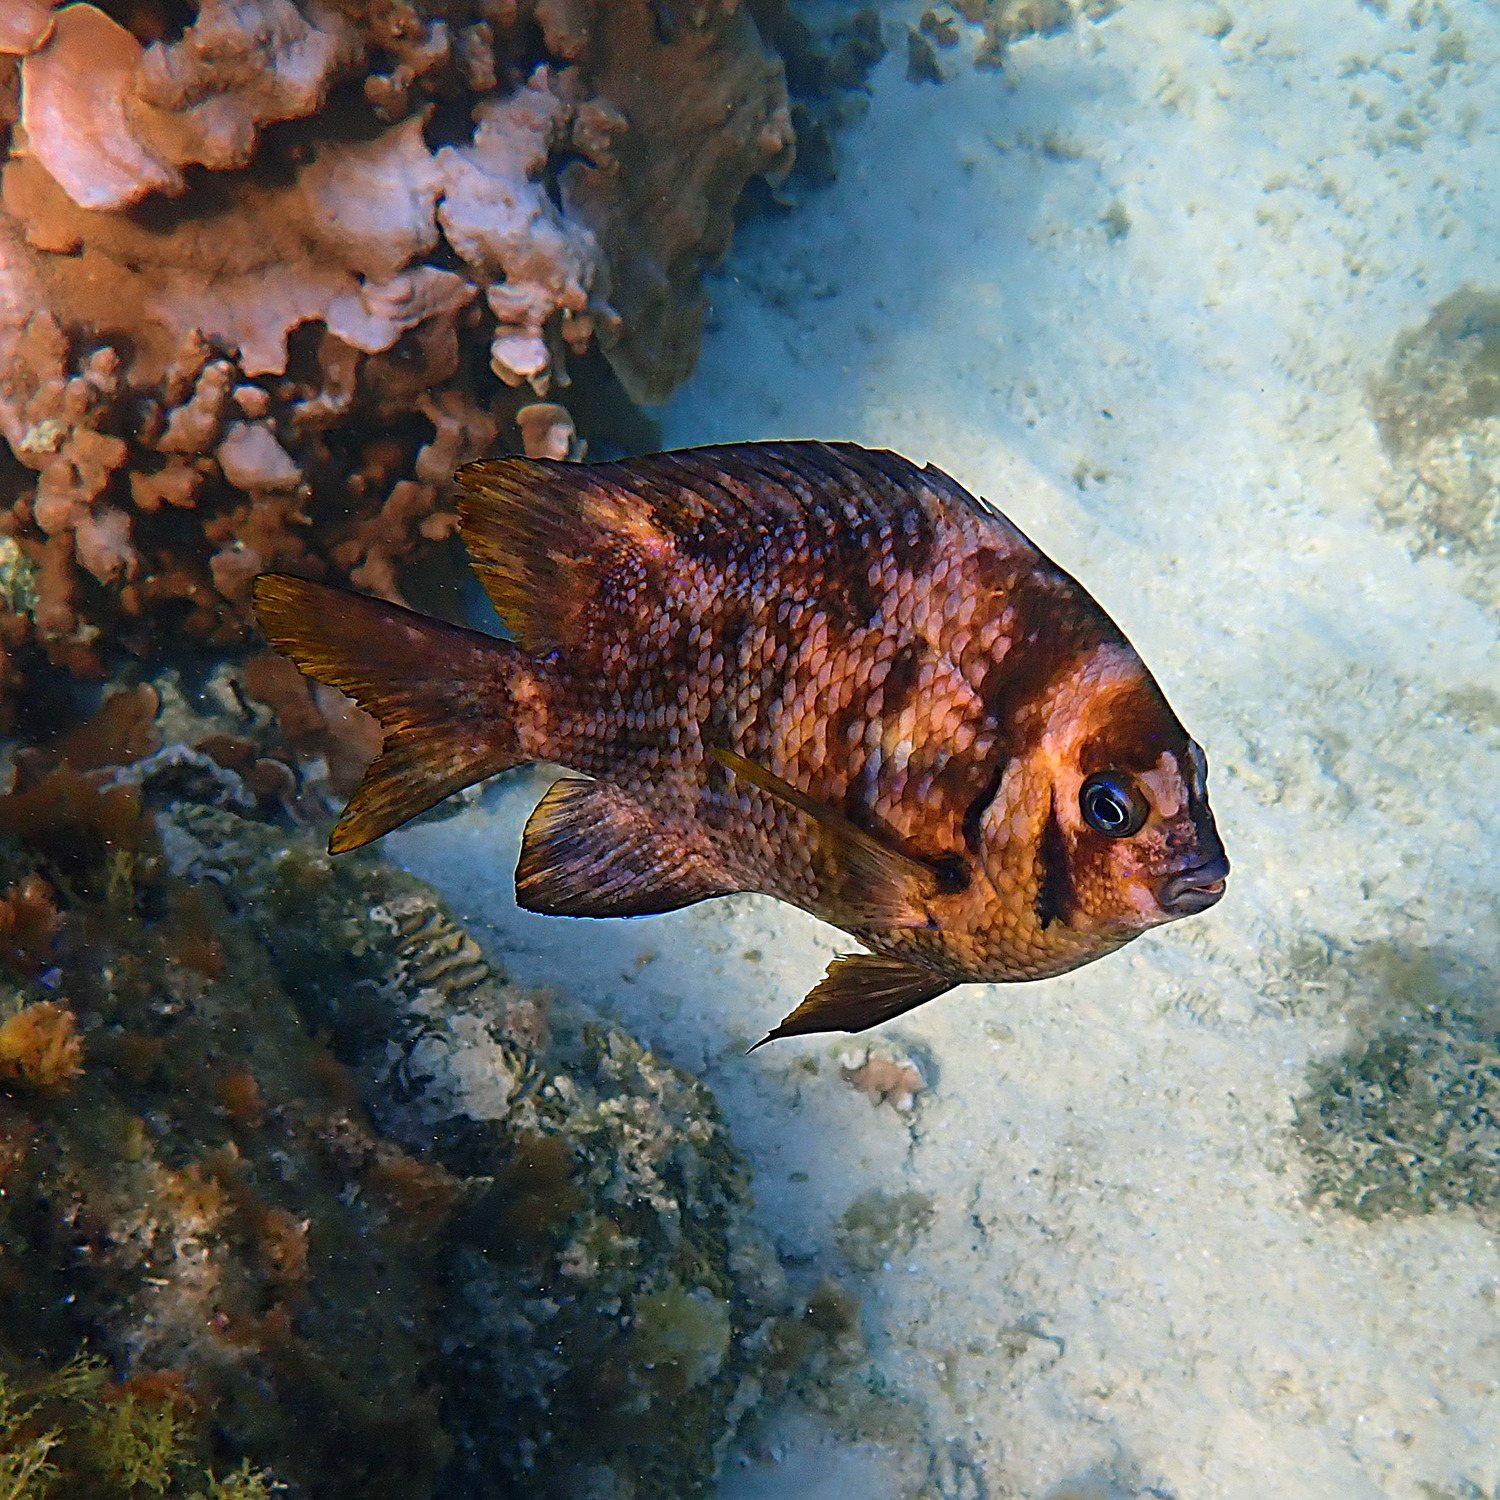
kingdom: Animalia
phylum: Chordata
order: Perciformes
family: Pomacentridae
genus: Parma
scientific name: Parma polylepis
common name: Banded parma
